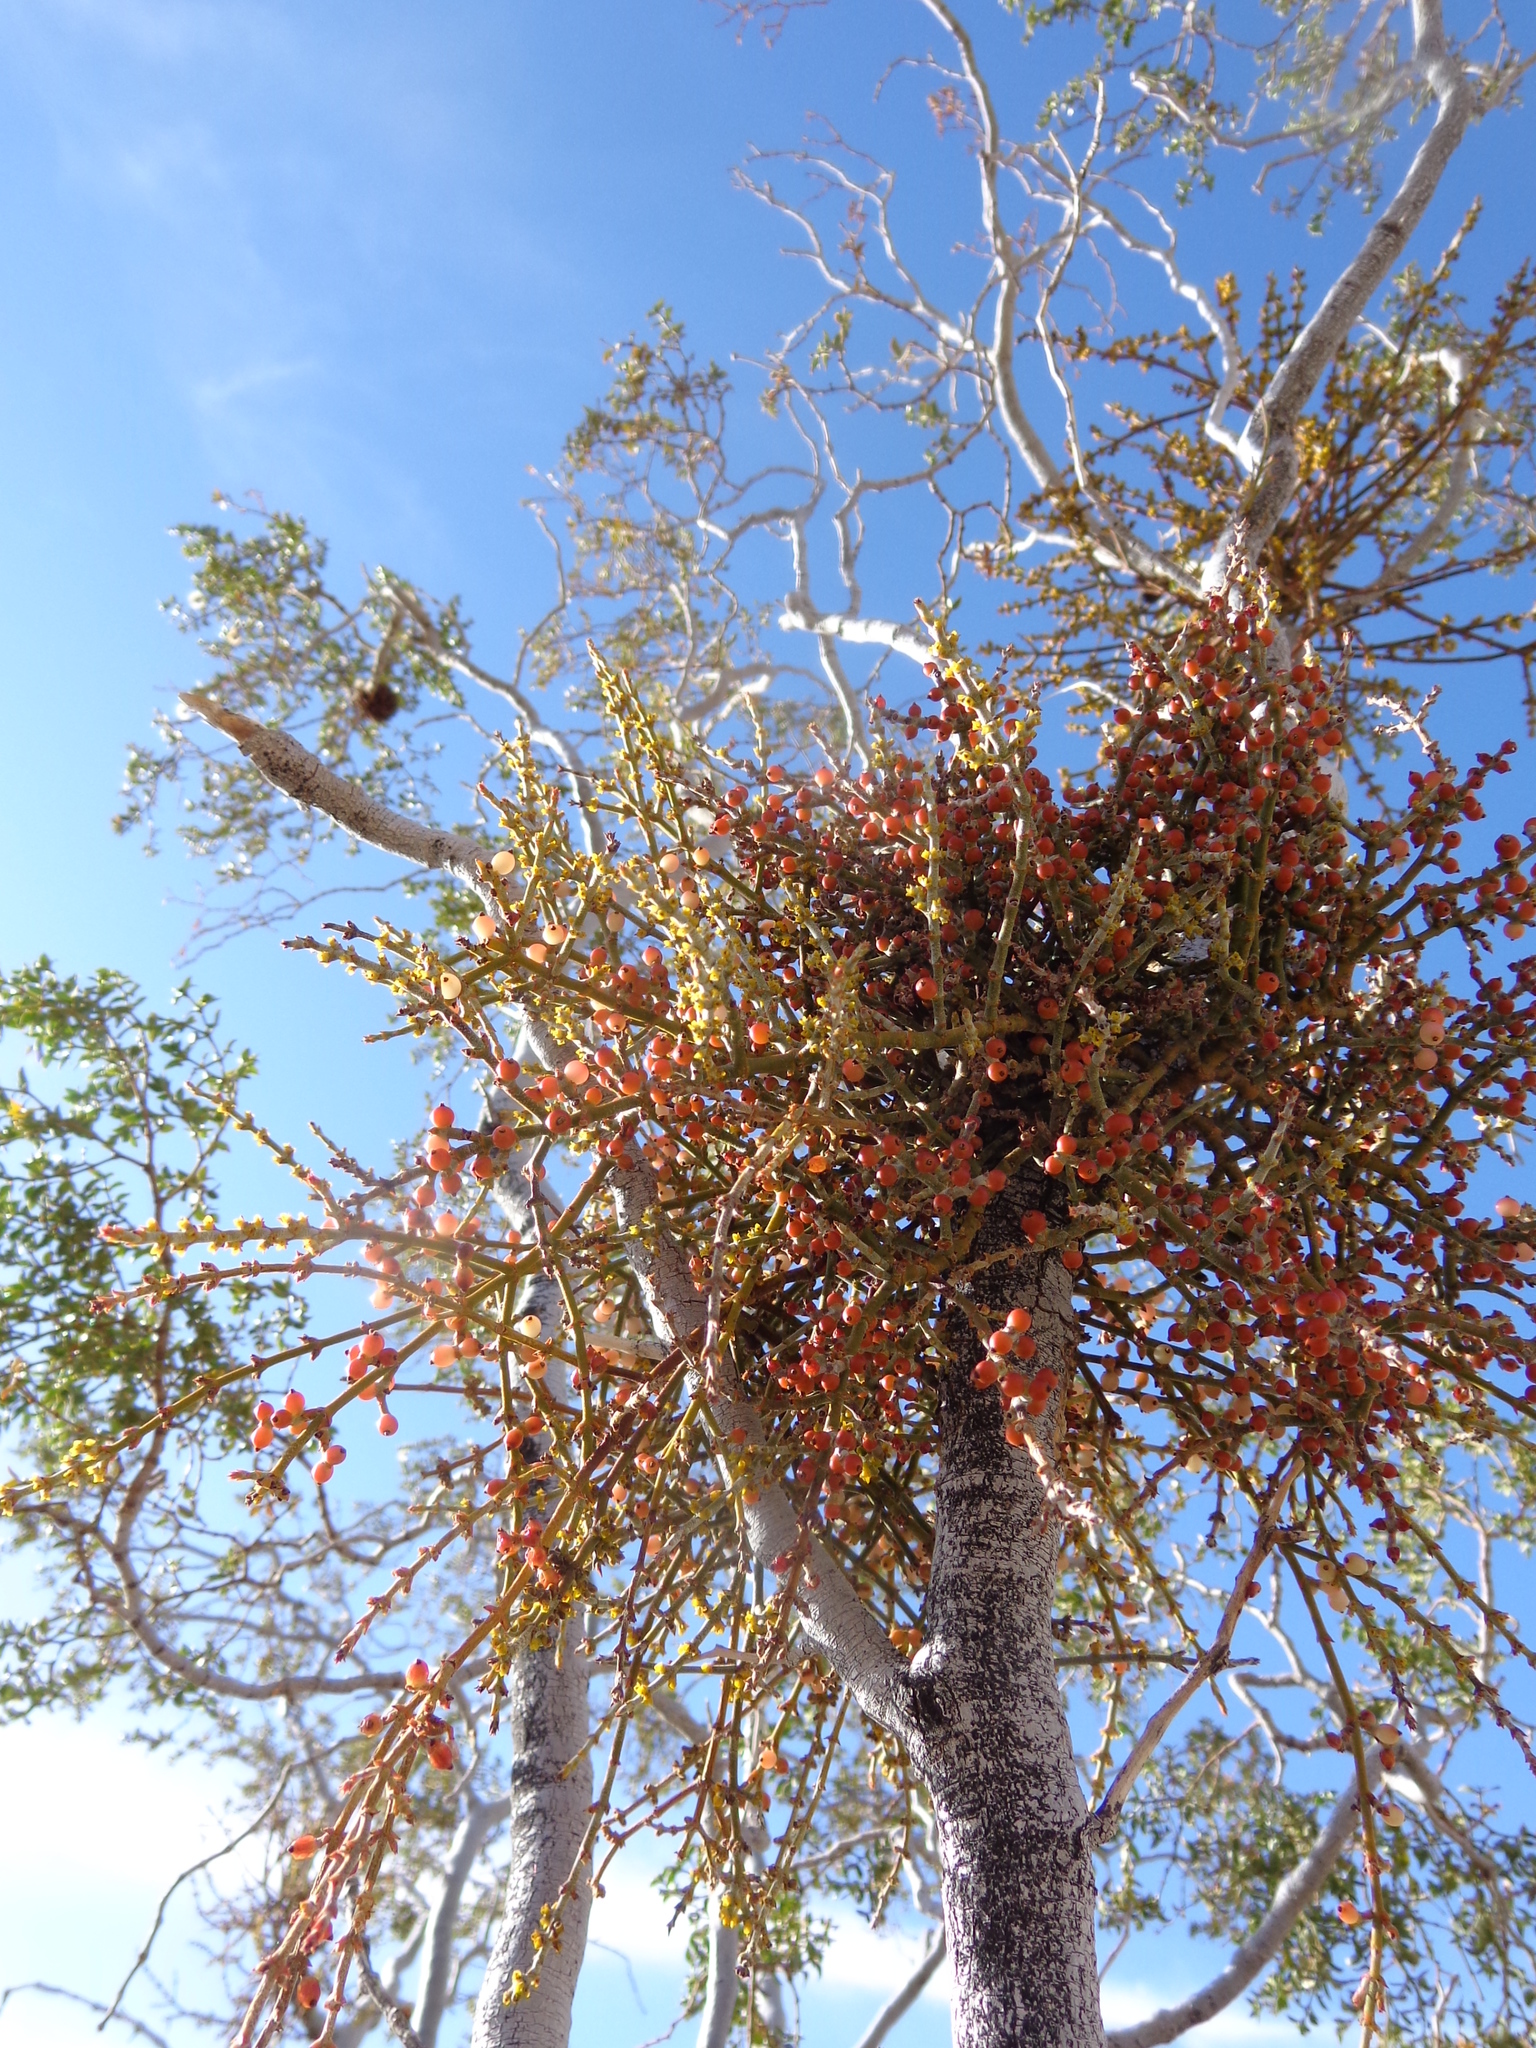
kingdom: Plantae
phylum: Tracheophyta
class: Magnoliopsida
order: Santalales
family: Viscaceae
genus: Phoradendron
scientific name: Phoradendron californicum
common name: Acacia mistletoe
